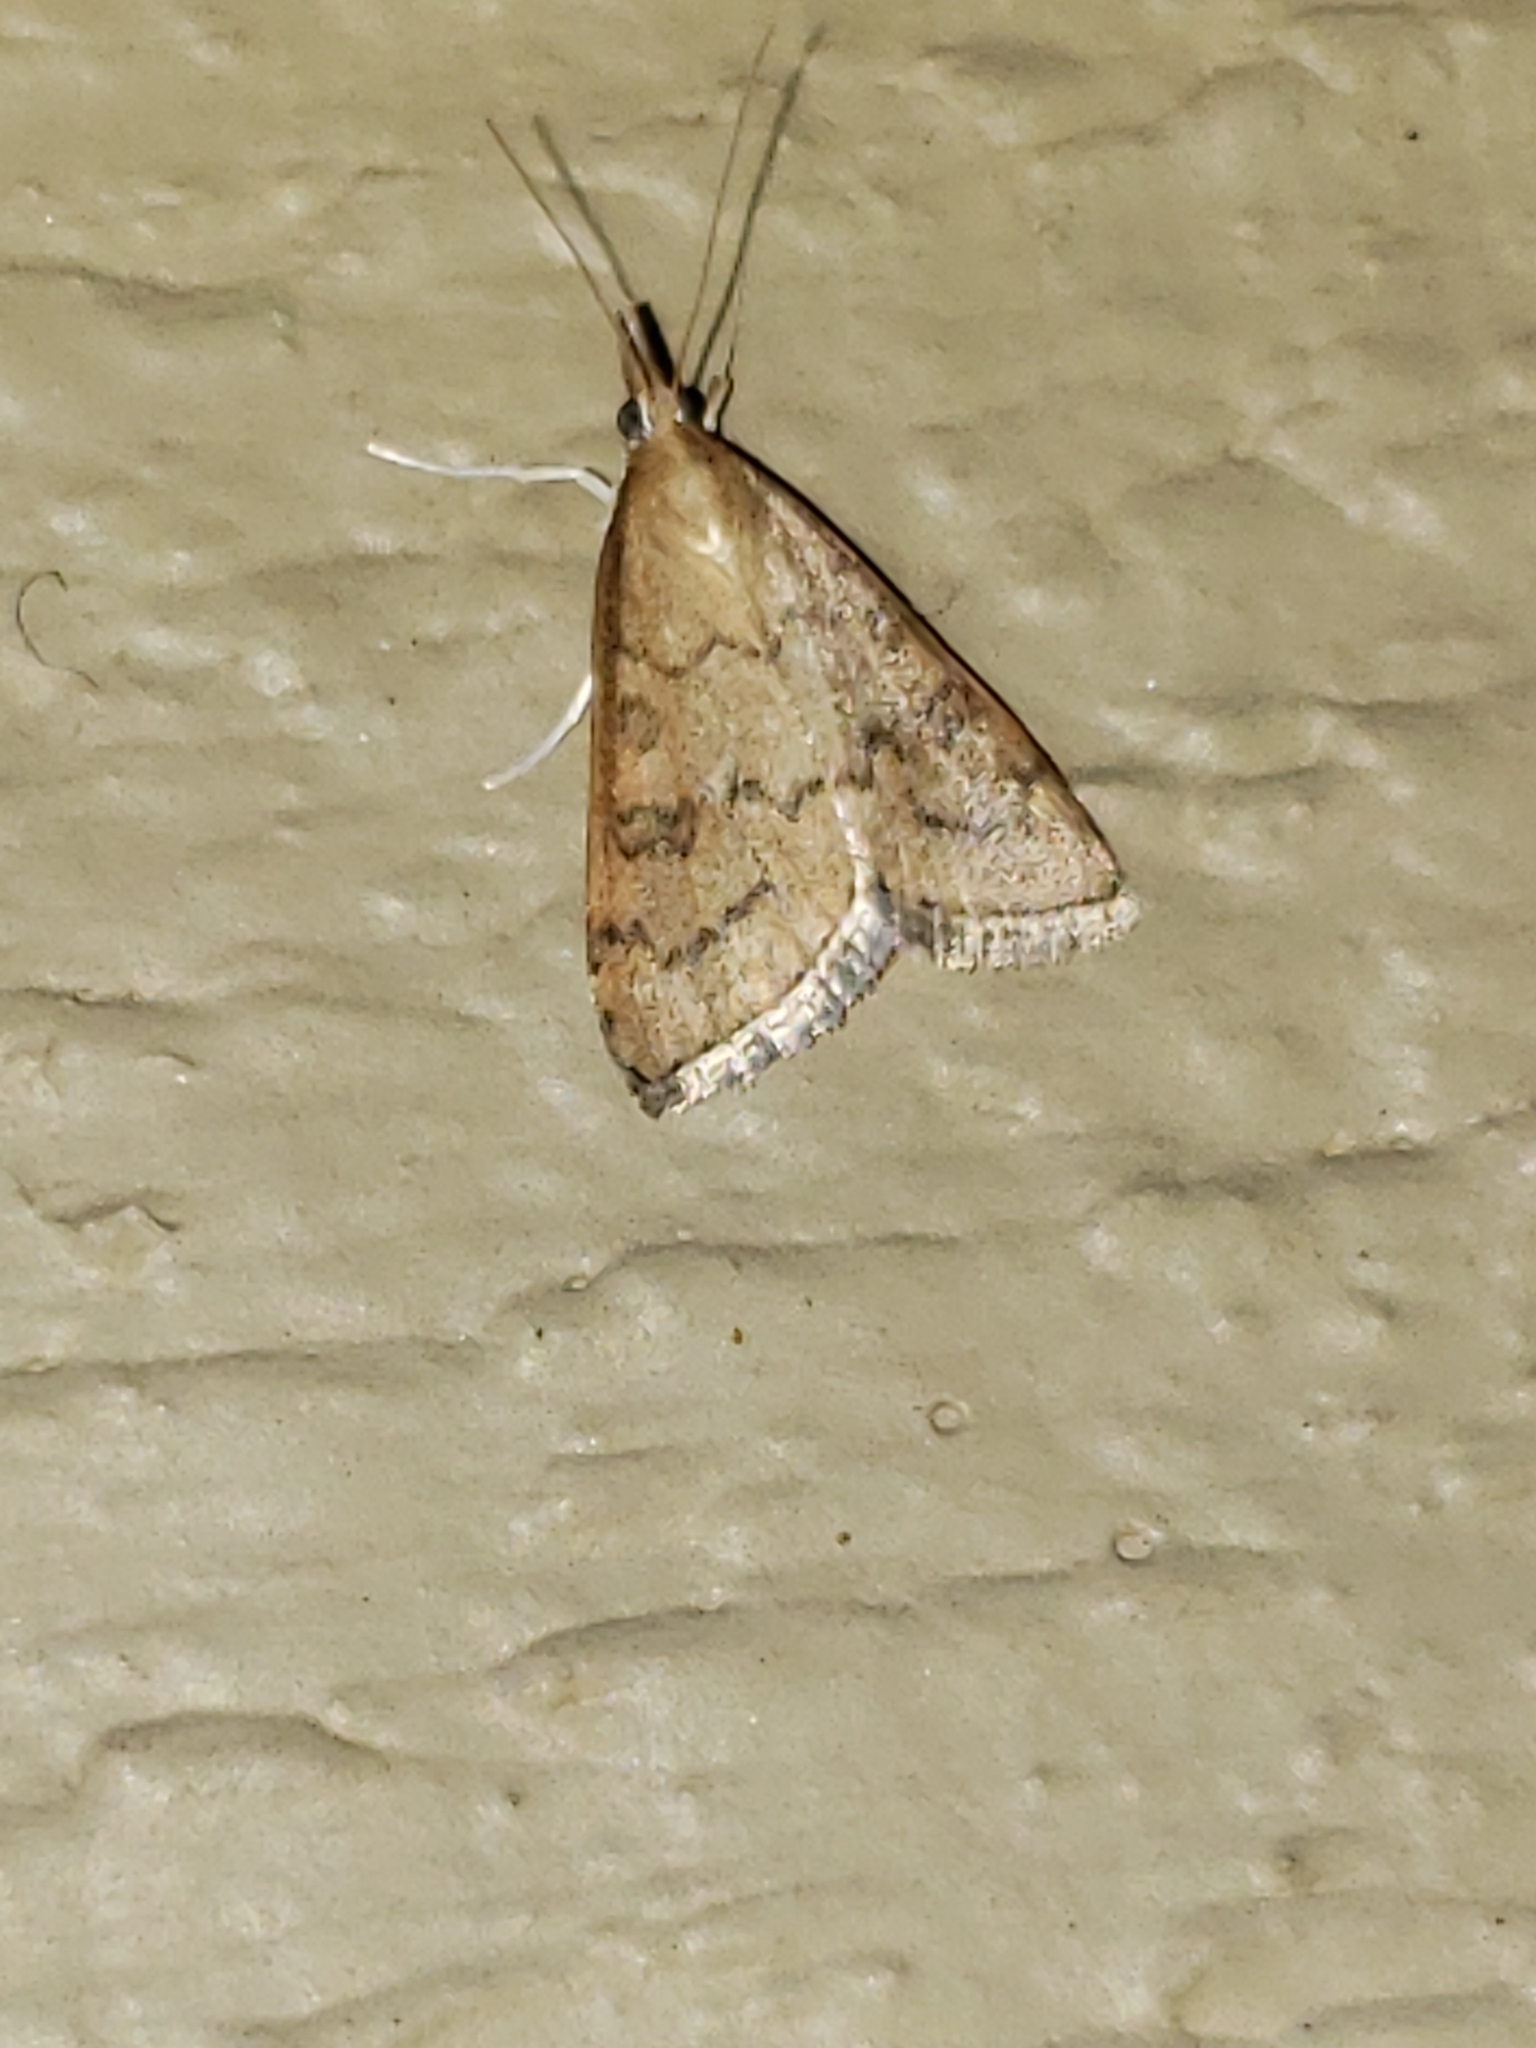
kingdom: Animalia
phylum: Arthropoda
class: Insecta
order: Lepidoptera
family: Crambidae
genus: Udea
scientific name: Udea rubigalis
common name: Celery leaftier moth
